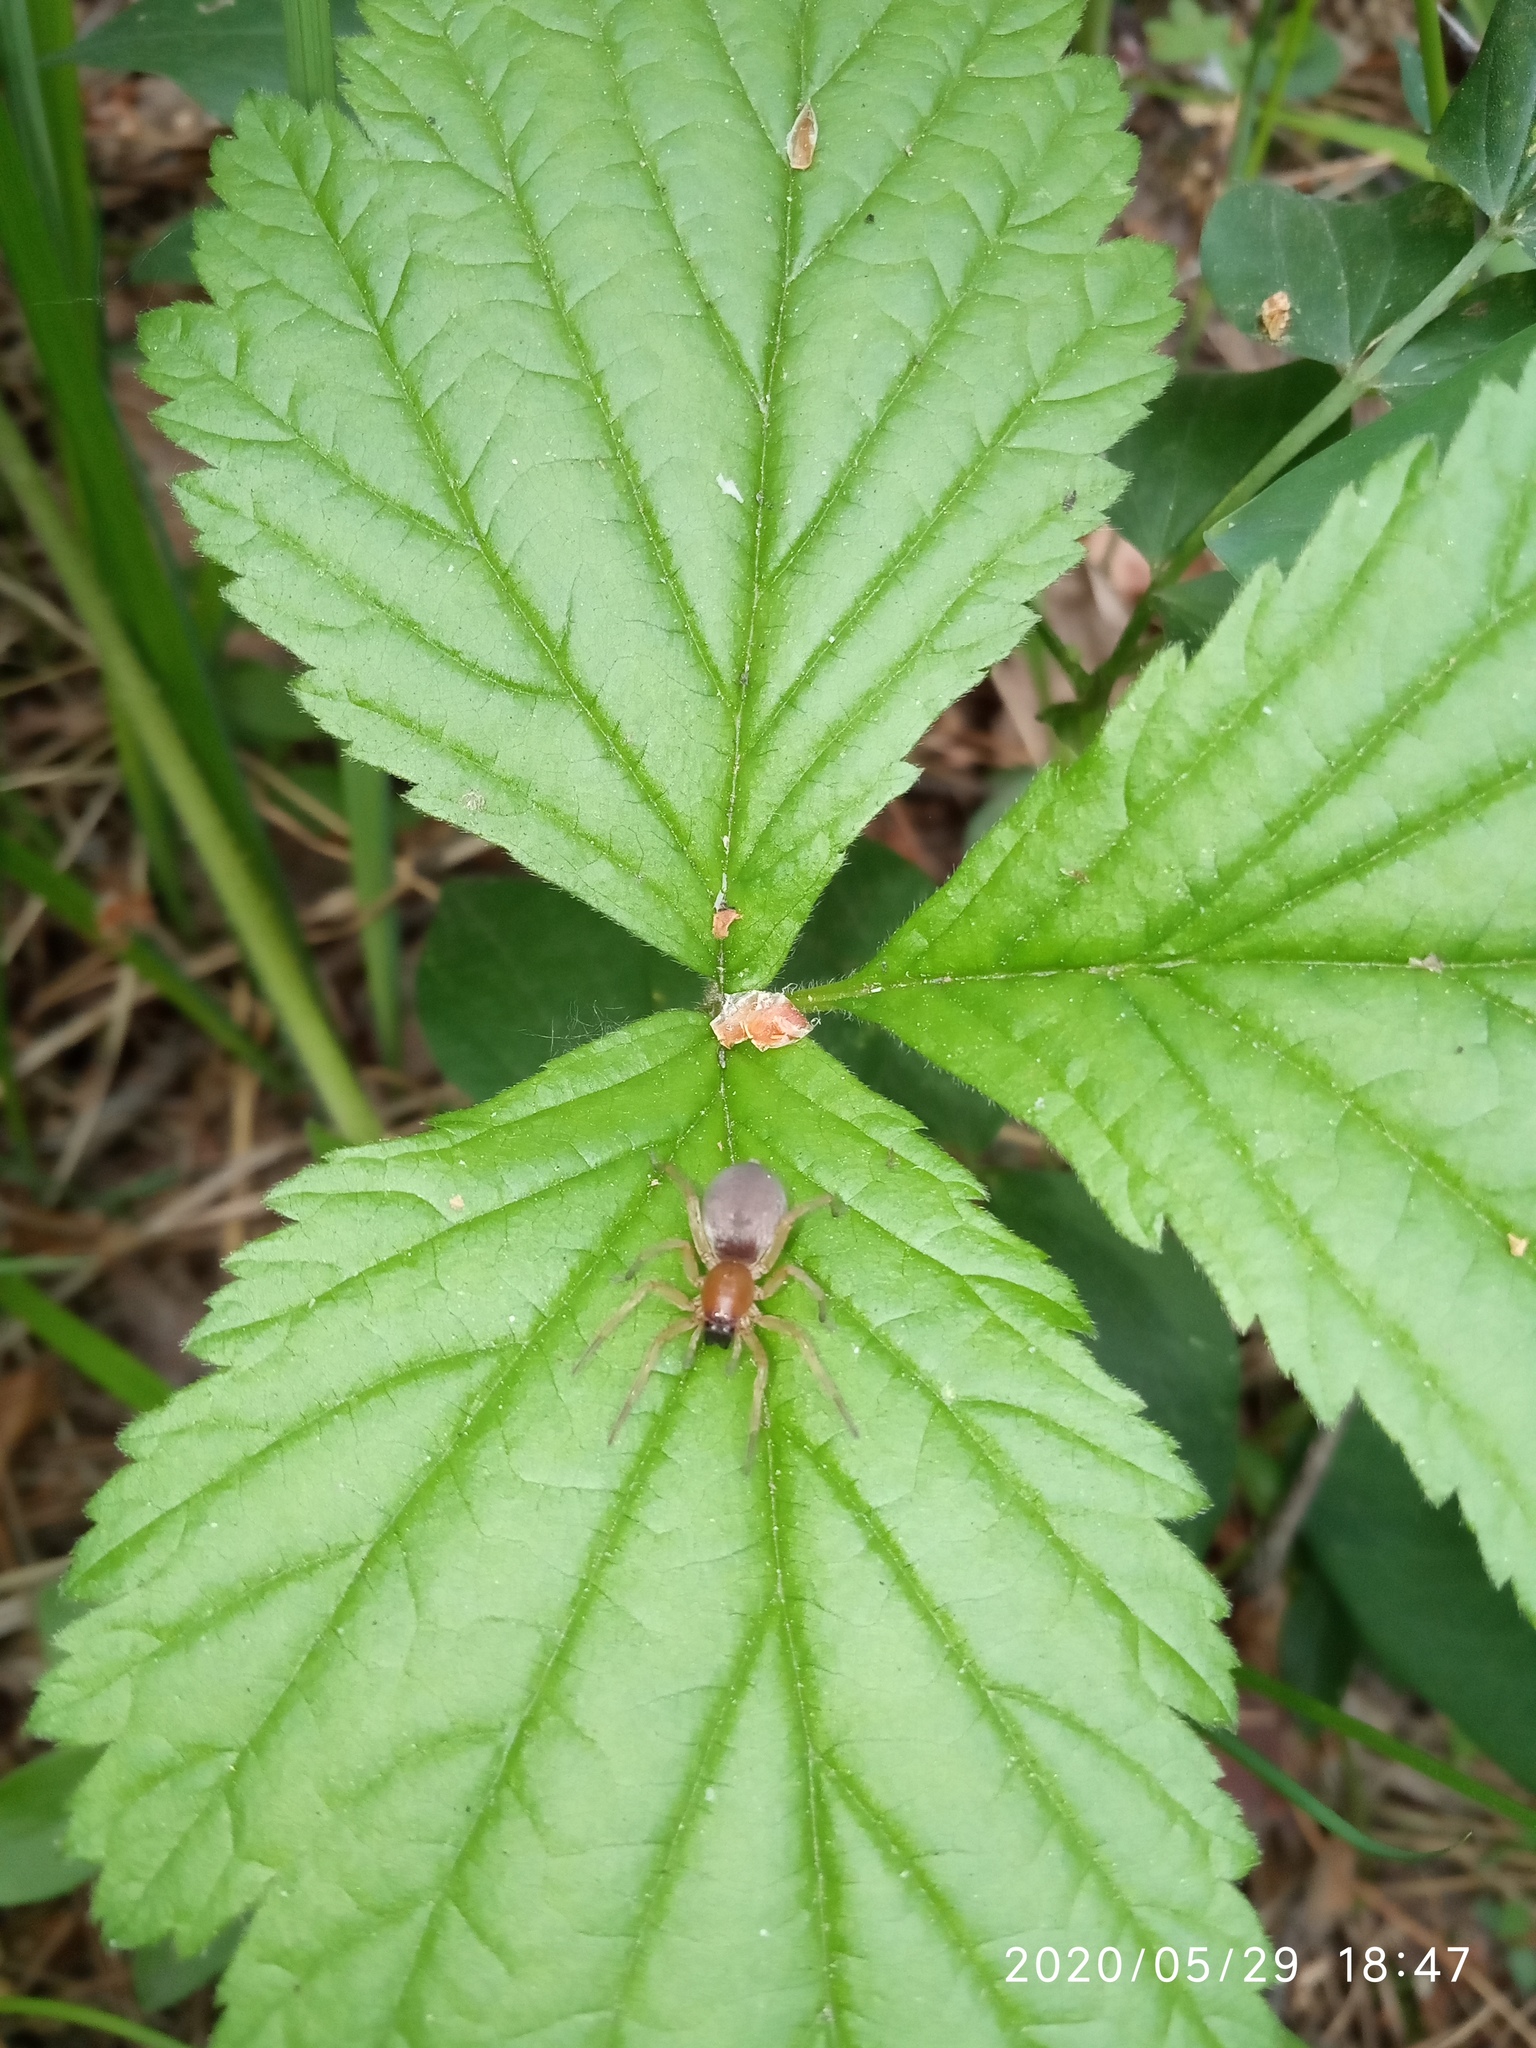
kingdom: Plantae
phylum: Tracheophyta
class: Magnoliopsida
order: Rosales
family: Rosaceae
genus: Rubus
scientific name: Rubus saxatilis
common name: Stone bramble
